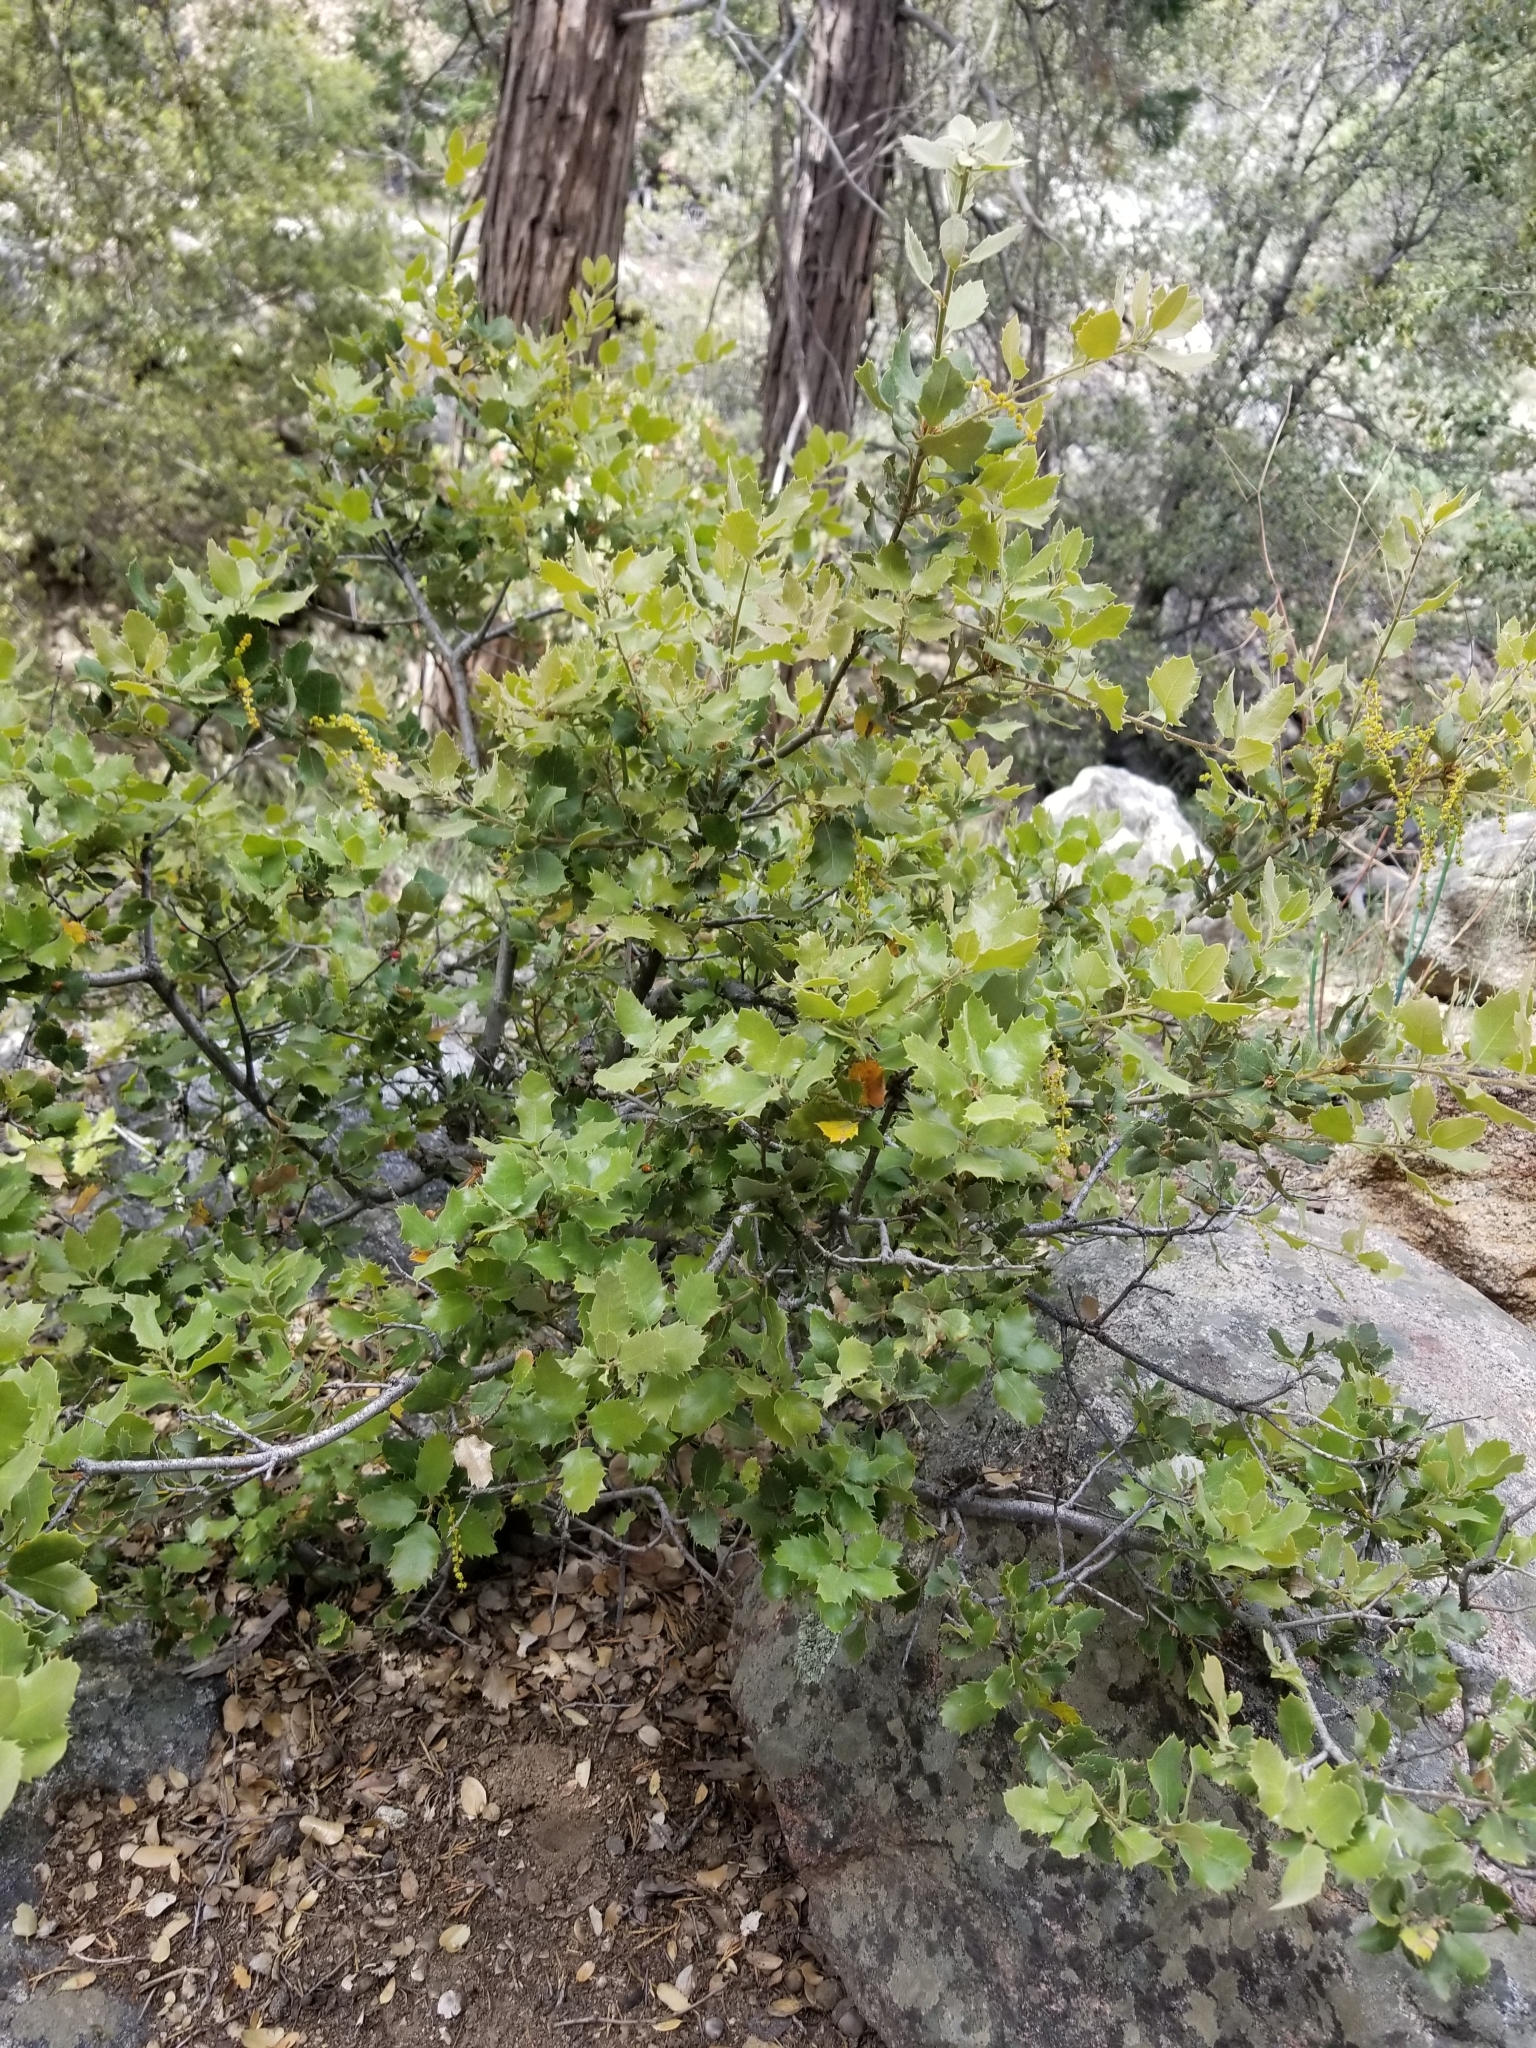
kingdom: Plantae
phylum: Tracheophyta
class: Magnoliopsida
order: Fagales
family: Fagaceae
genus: Quercus
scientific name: Quercus chrysolepis
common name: Canyon live oak
